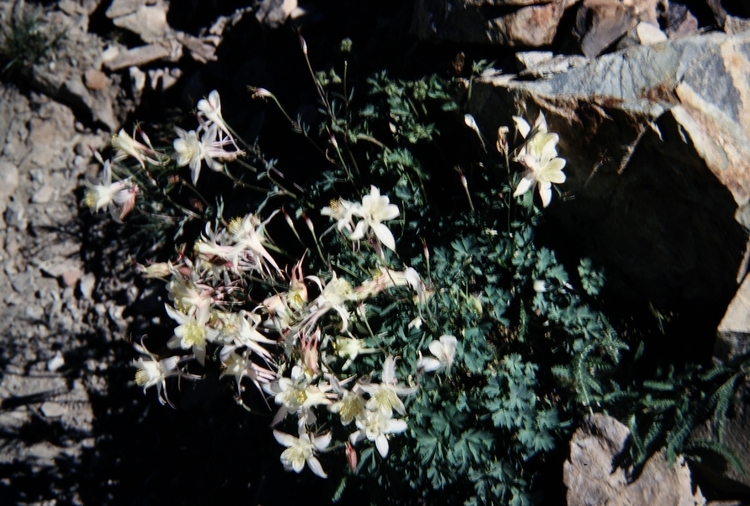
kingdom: Plantae
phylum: Tracheophyta
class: Magnoliopsida
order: Ranunculales
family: Ranunculaceae
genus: Aquilegia
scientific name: Aquilegia pubescens
